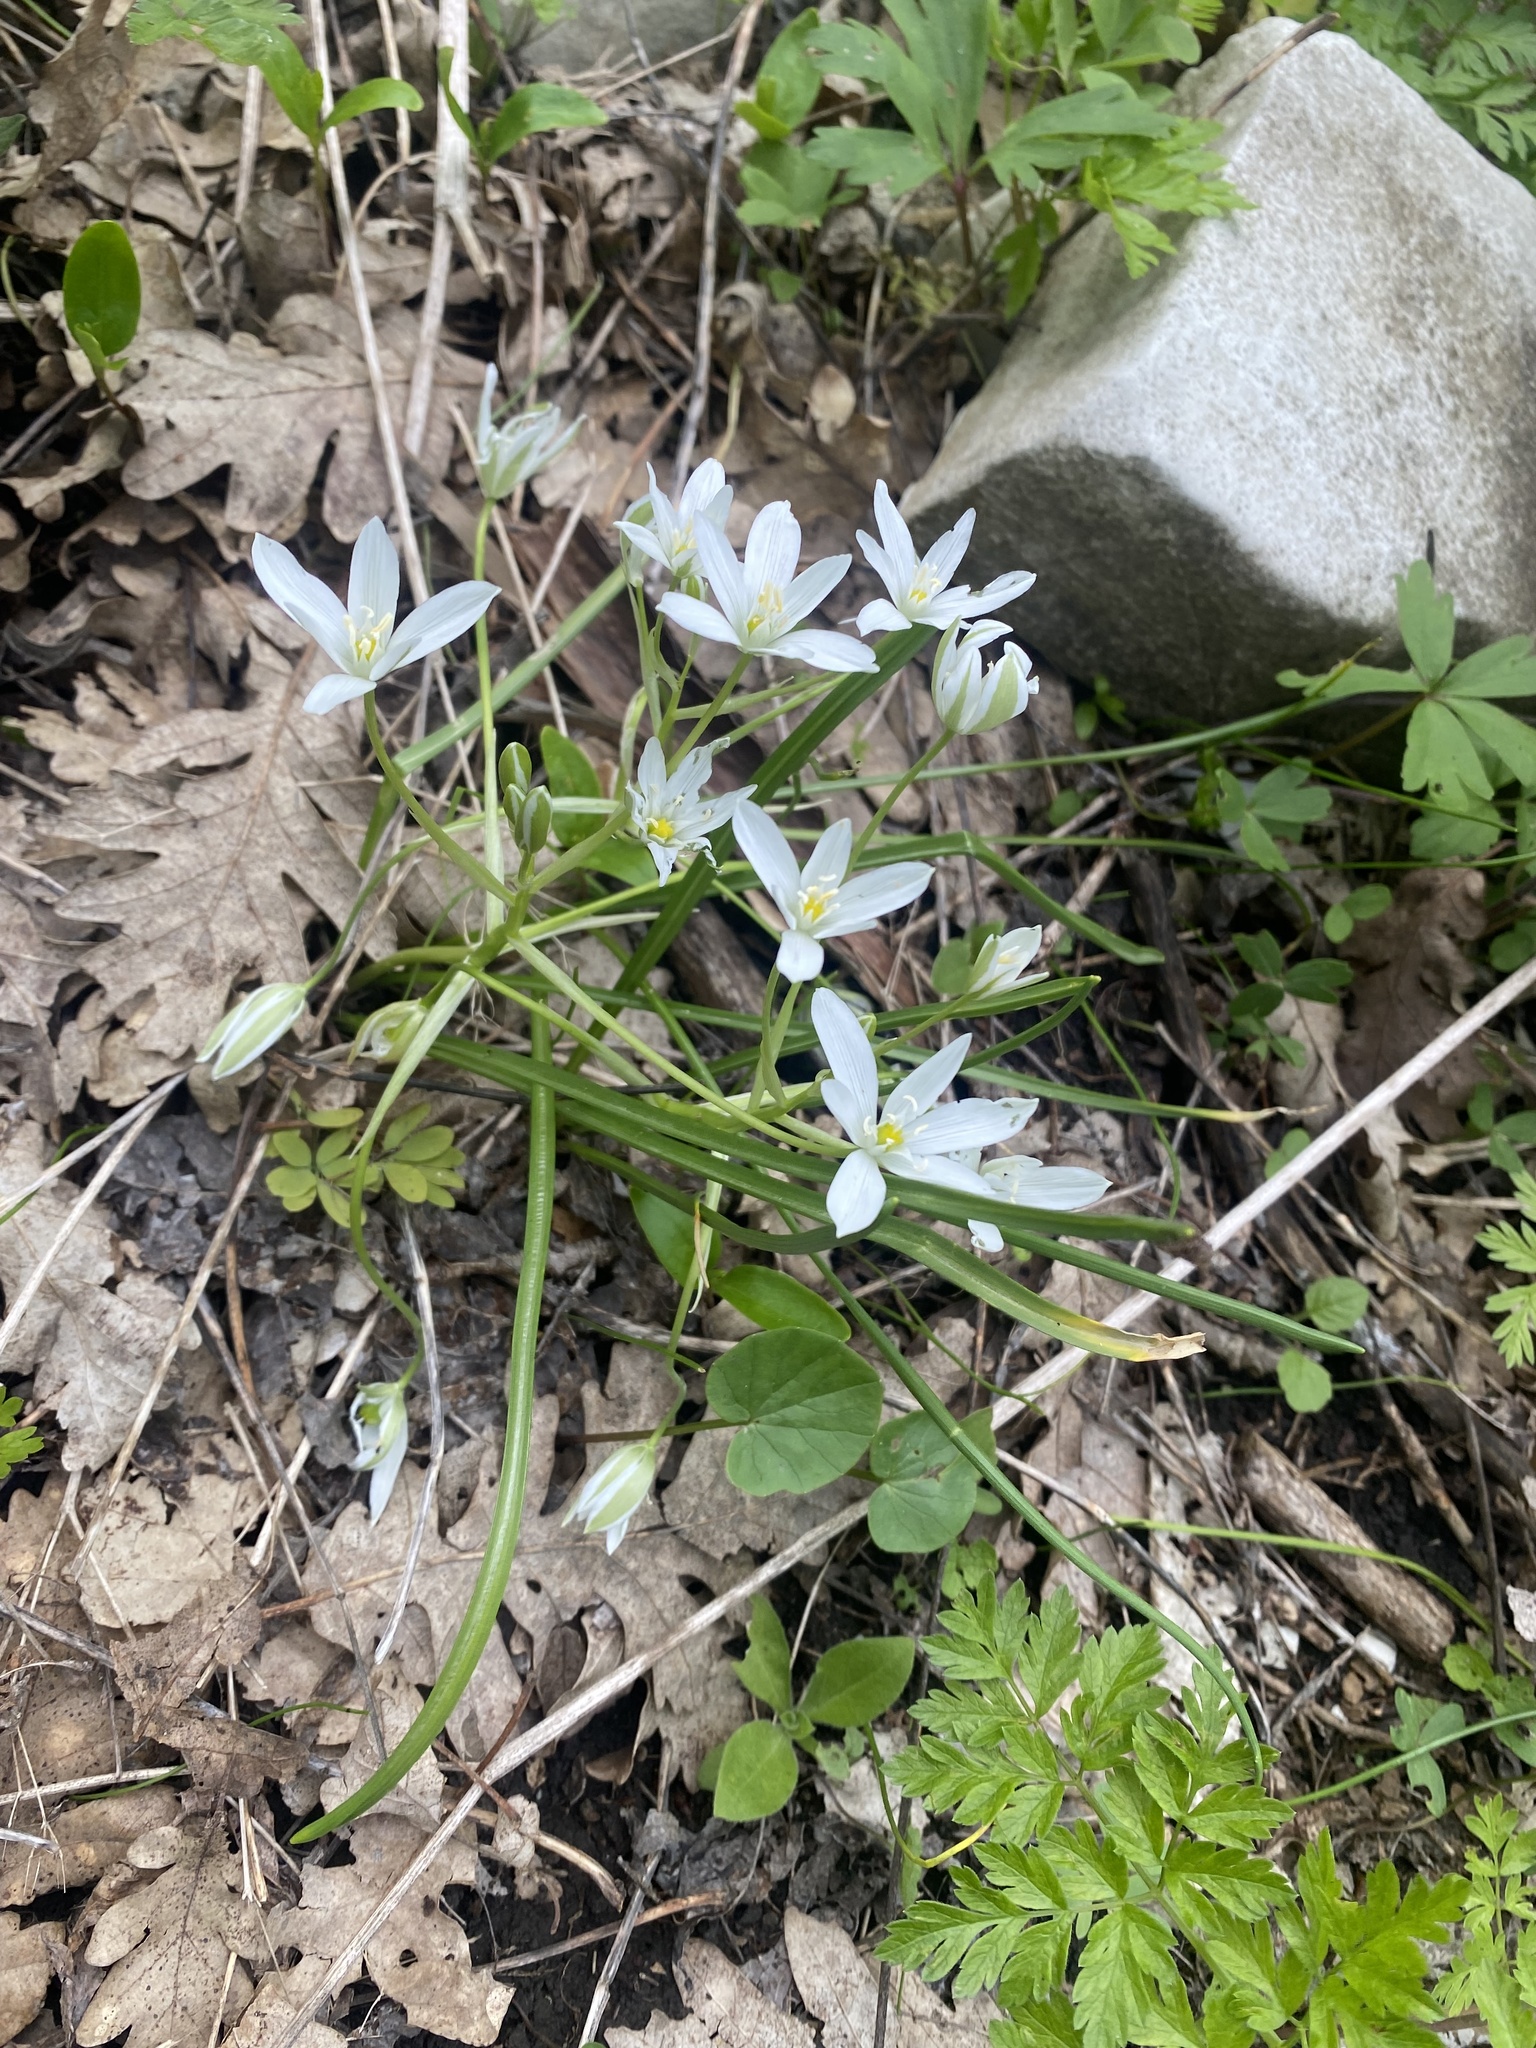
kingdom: Plantae
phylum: Tracheophyta
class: Liliopsida
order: Asparagales
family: Asparagaceae
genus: Ornithogalum
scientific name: Ornithogalum woronowii
